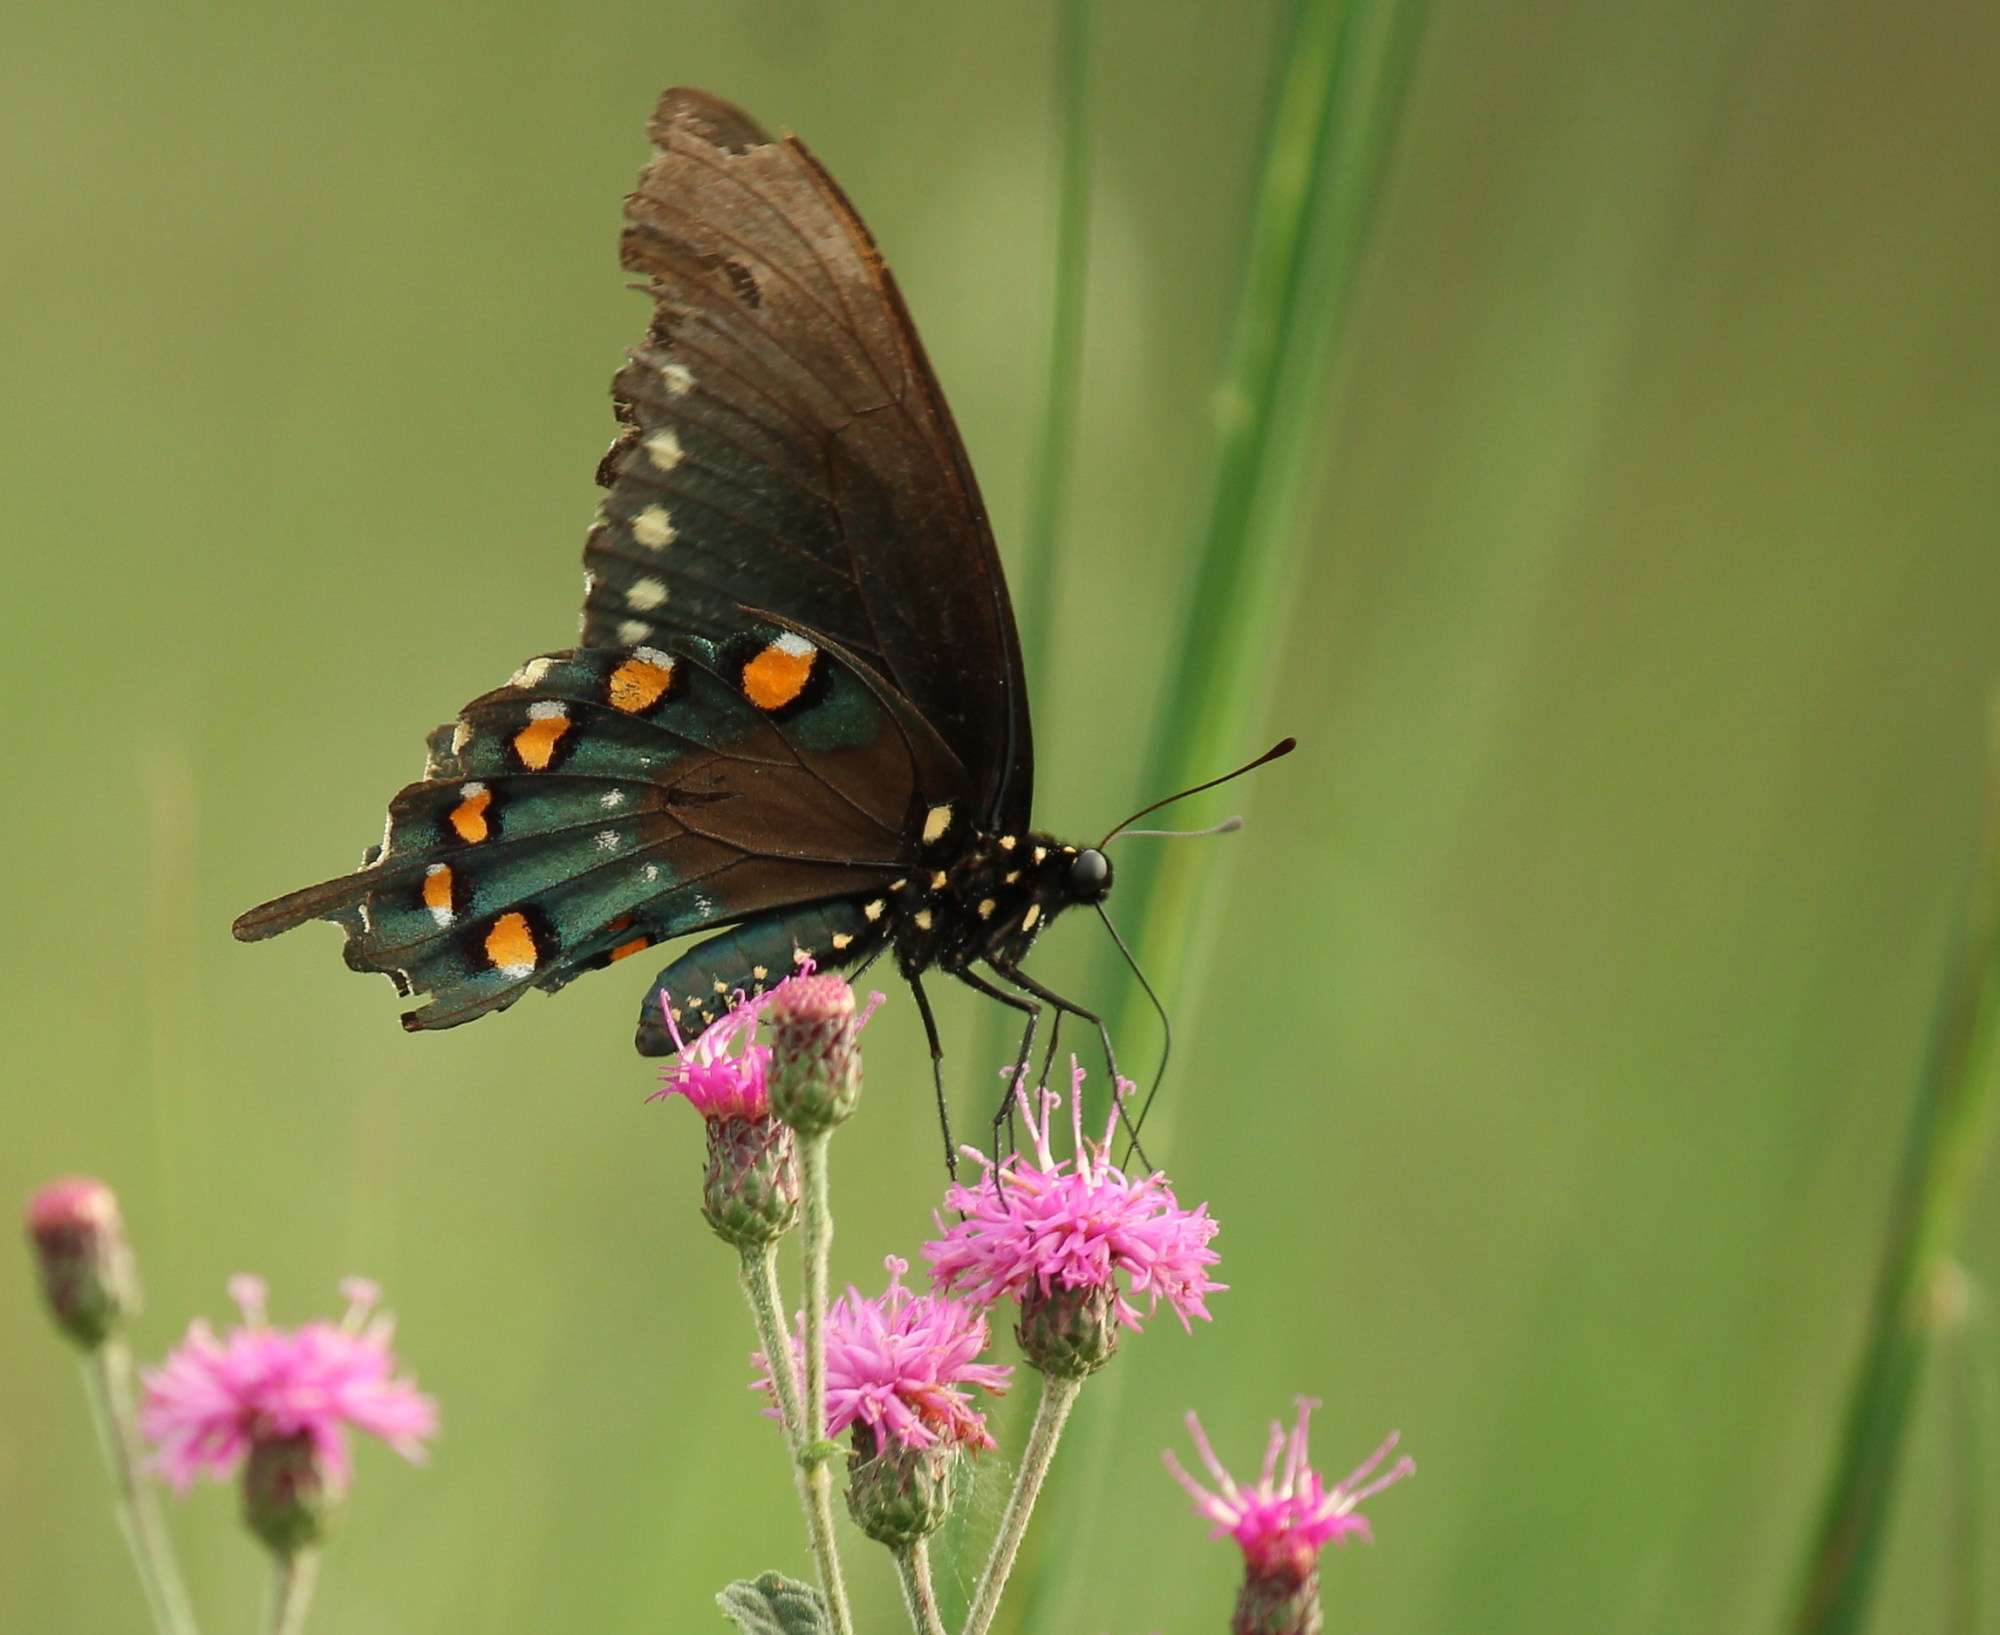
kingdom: Animalia
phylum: Arthropoda
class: Insecta
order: Lepidoptera
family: Papilionidae
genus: Battus
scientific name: Battus philenor
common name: Pipevine swallowtail
